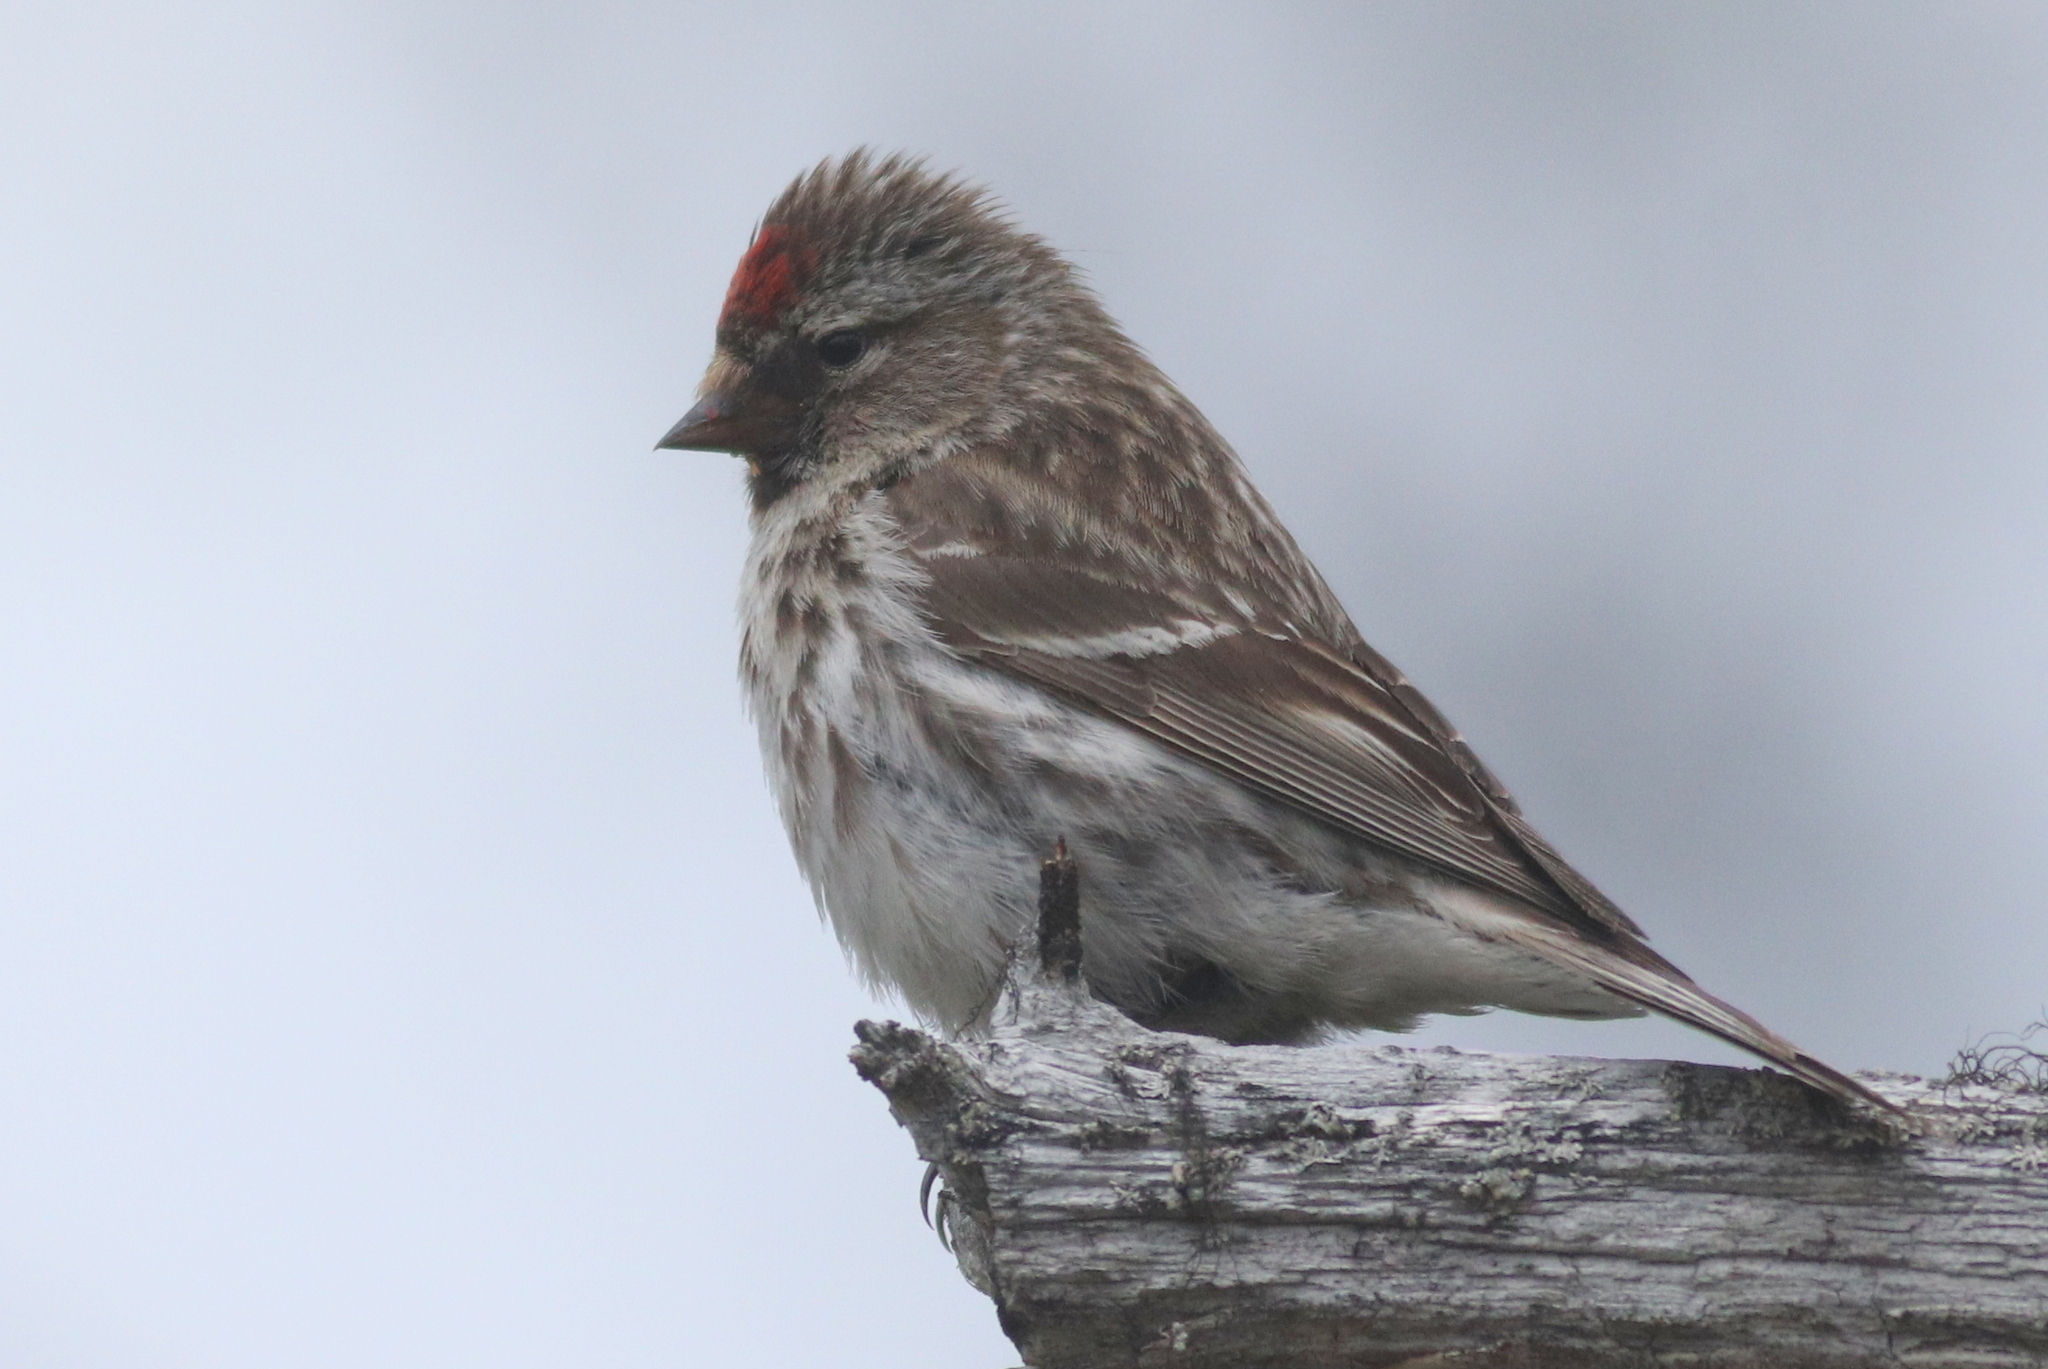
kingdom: Animalia
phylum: Chordata
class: Aves
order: Passeriformes
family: Fringillidae
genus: Acanthis
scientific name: Acanthis flammea
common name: Common redpoll
